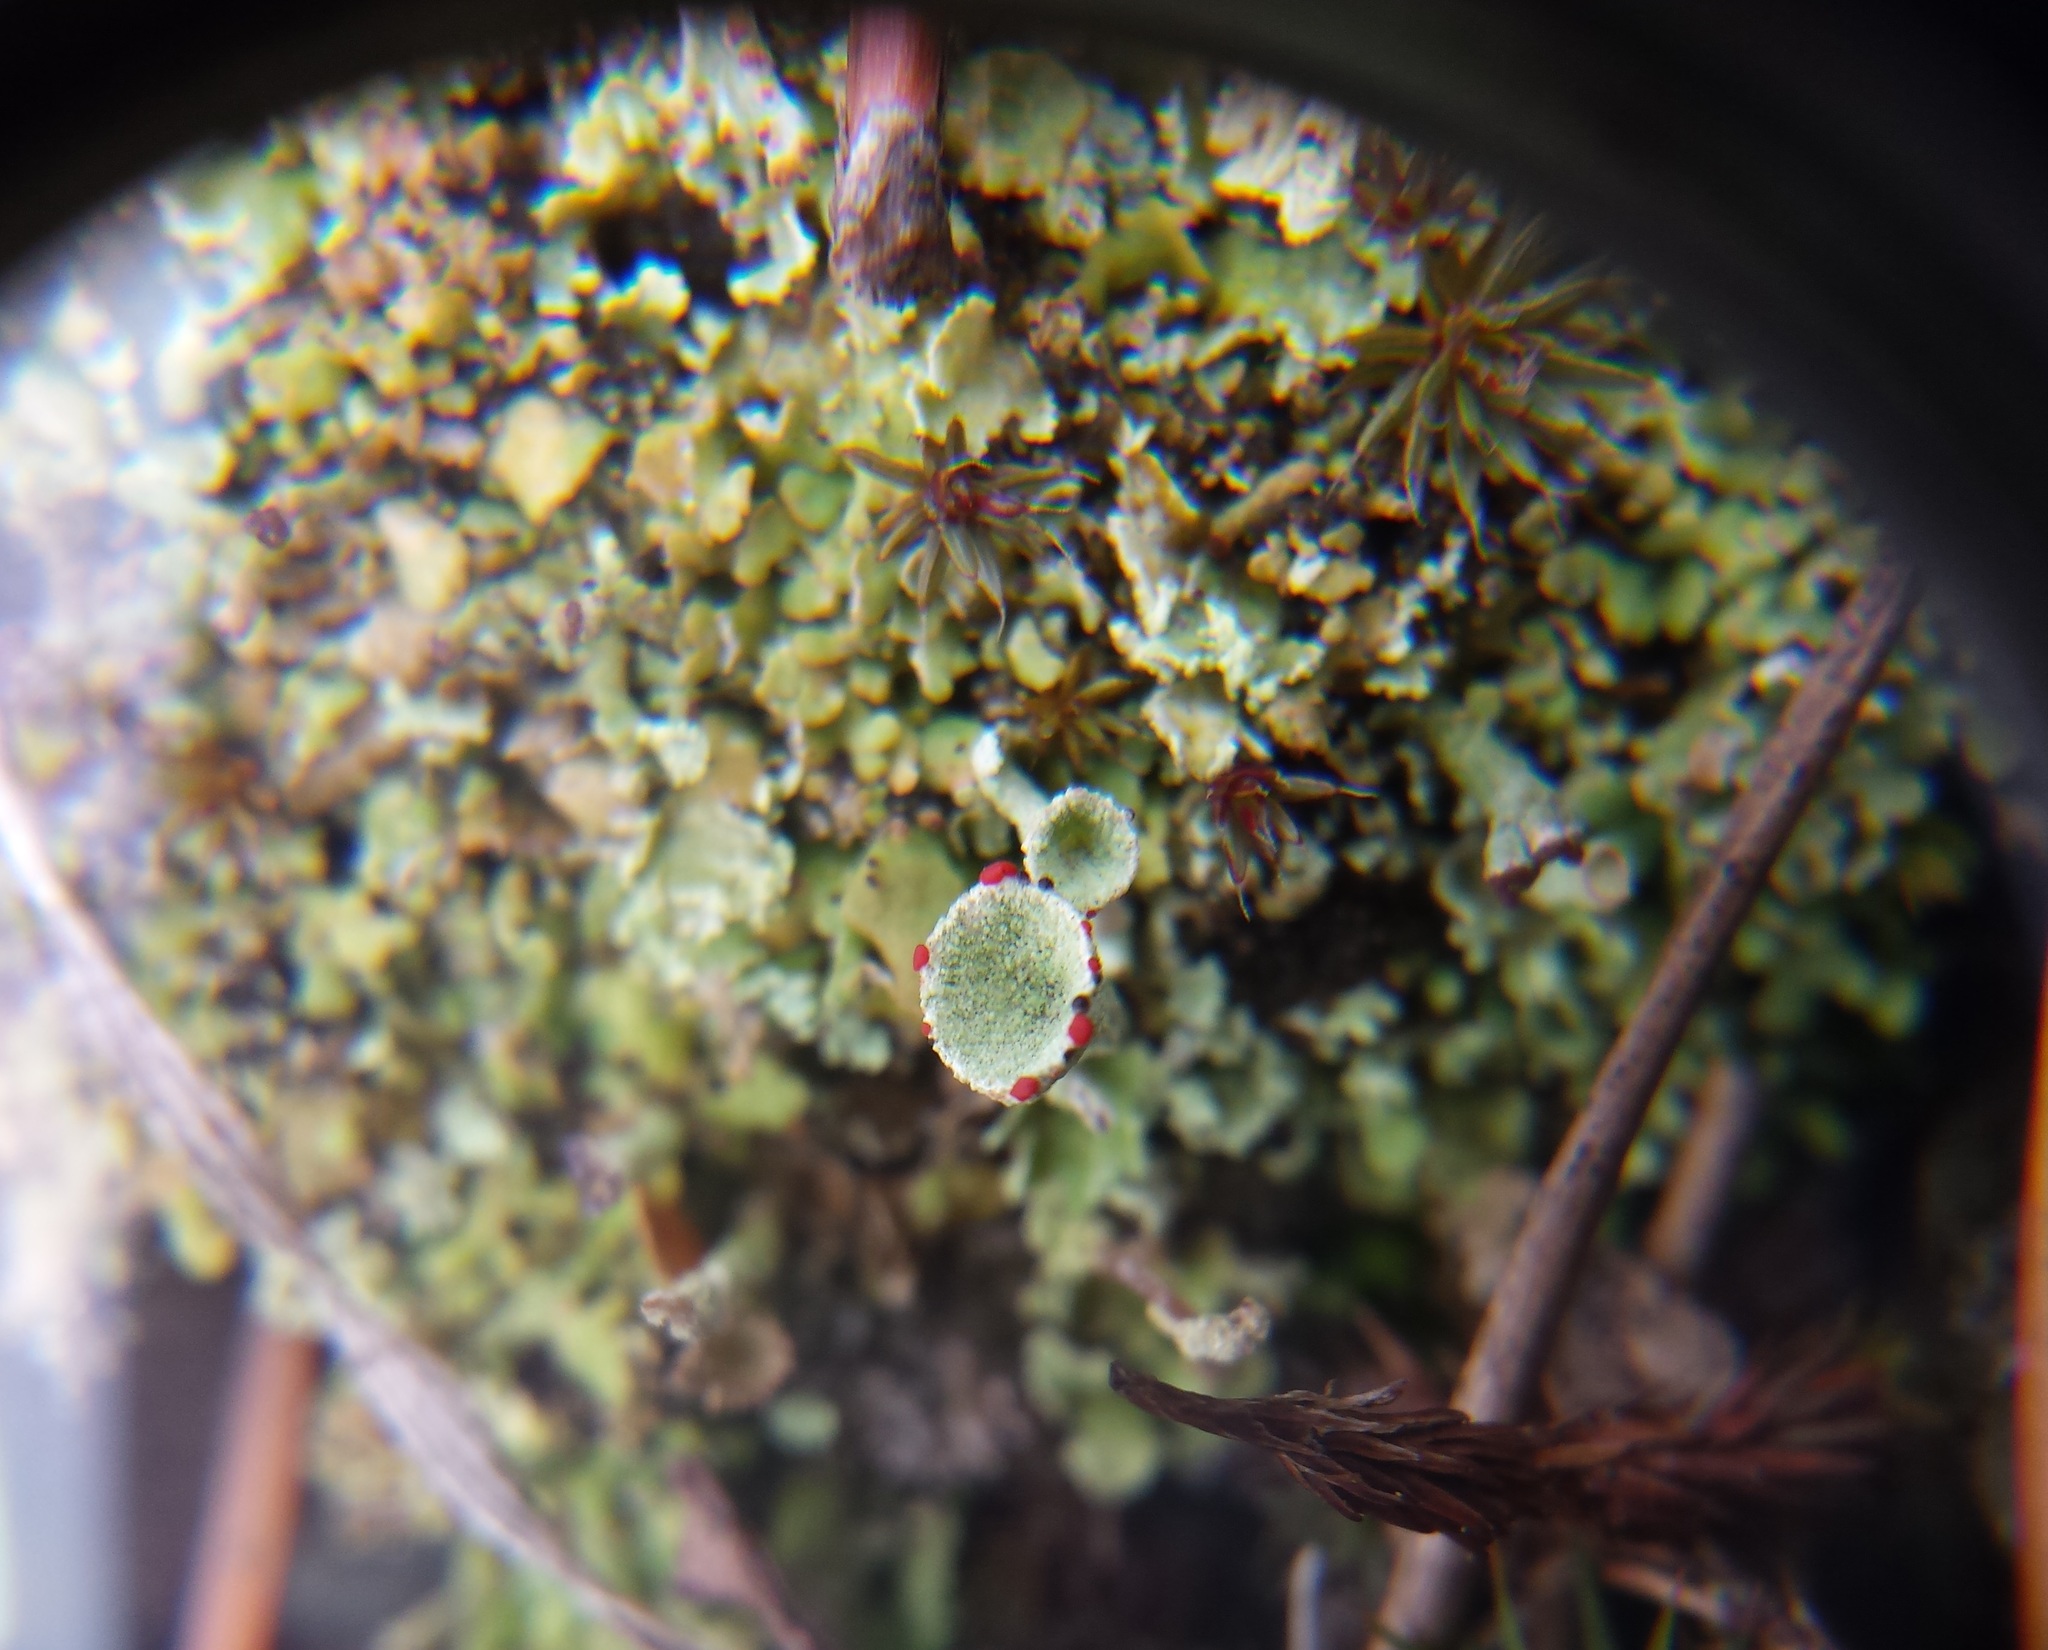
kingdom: Fungi
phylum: Ascomycota
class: Lecanoromycetes
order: Lecanorales
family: Cladoniaceae
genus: Cladonia
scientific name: Cladonia pleurota
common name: Red-fruited pixie cup
